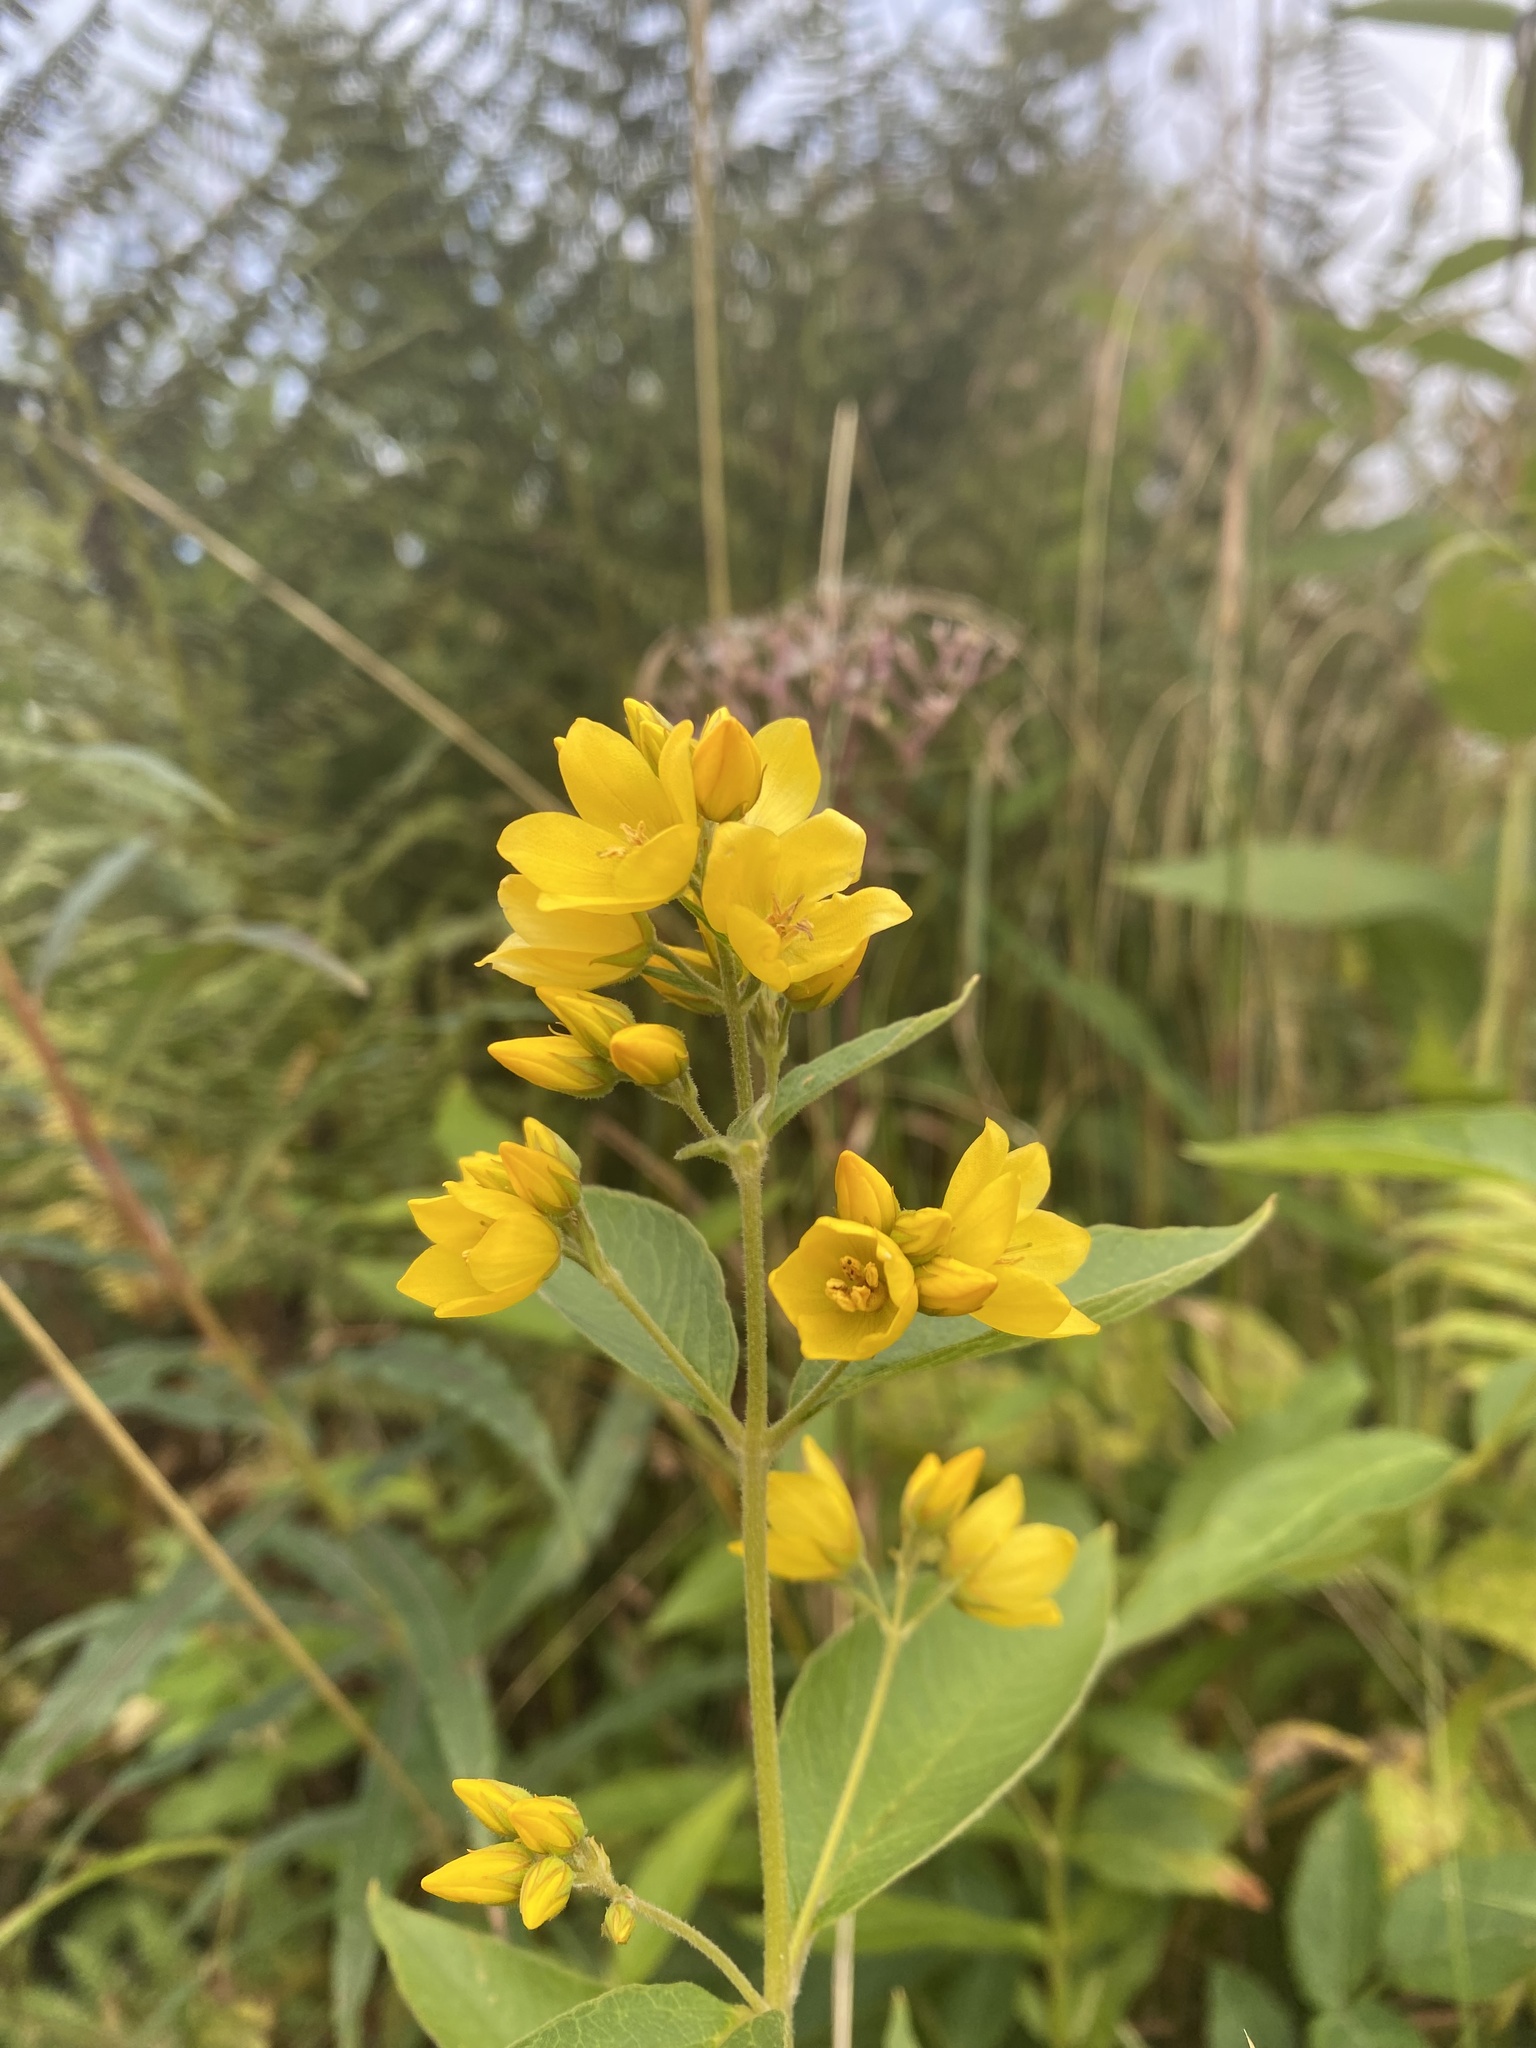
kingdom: Plantae
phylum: Tracheophyta
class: Magnoliopsida
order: Ericales
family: Primulaceae
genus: Lysimachia
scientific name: Lysimachia vulgaris
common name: Yellow loosestrife
